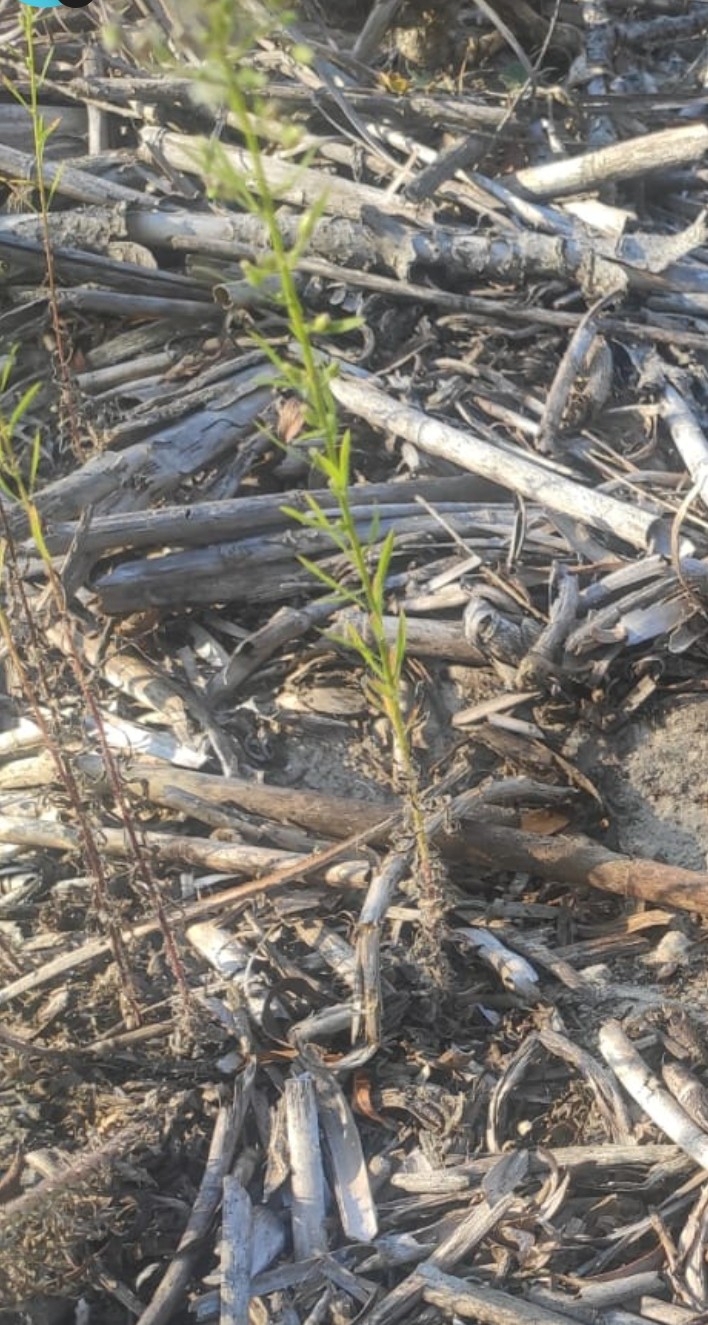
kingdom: Plantae
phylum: Tracheophyta
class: Magnoliopsida
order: Asterales
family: Asteraceae
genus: Erigeron
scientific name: Erigeron canadensis
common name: Canadian fleabane
